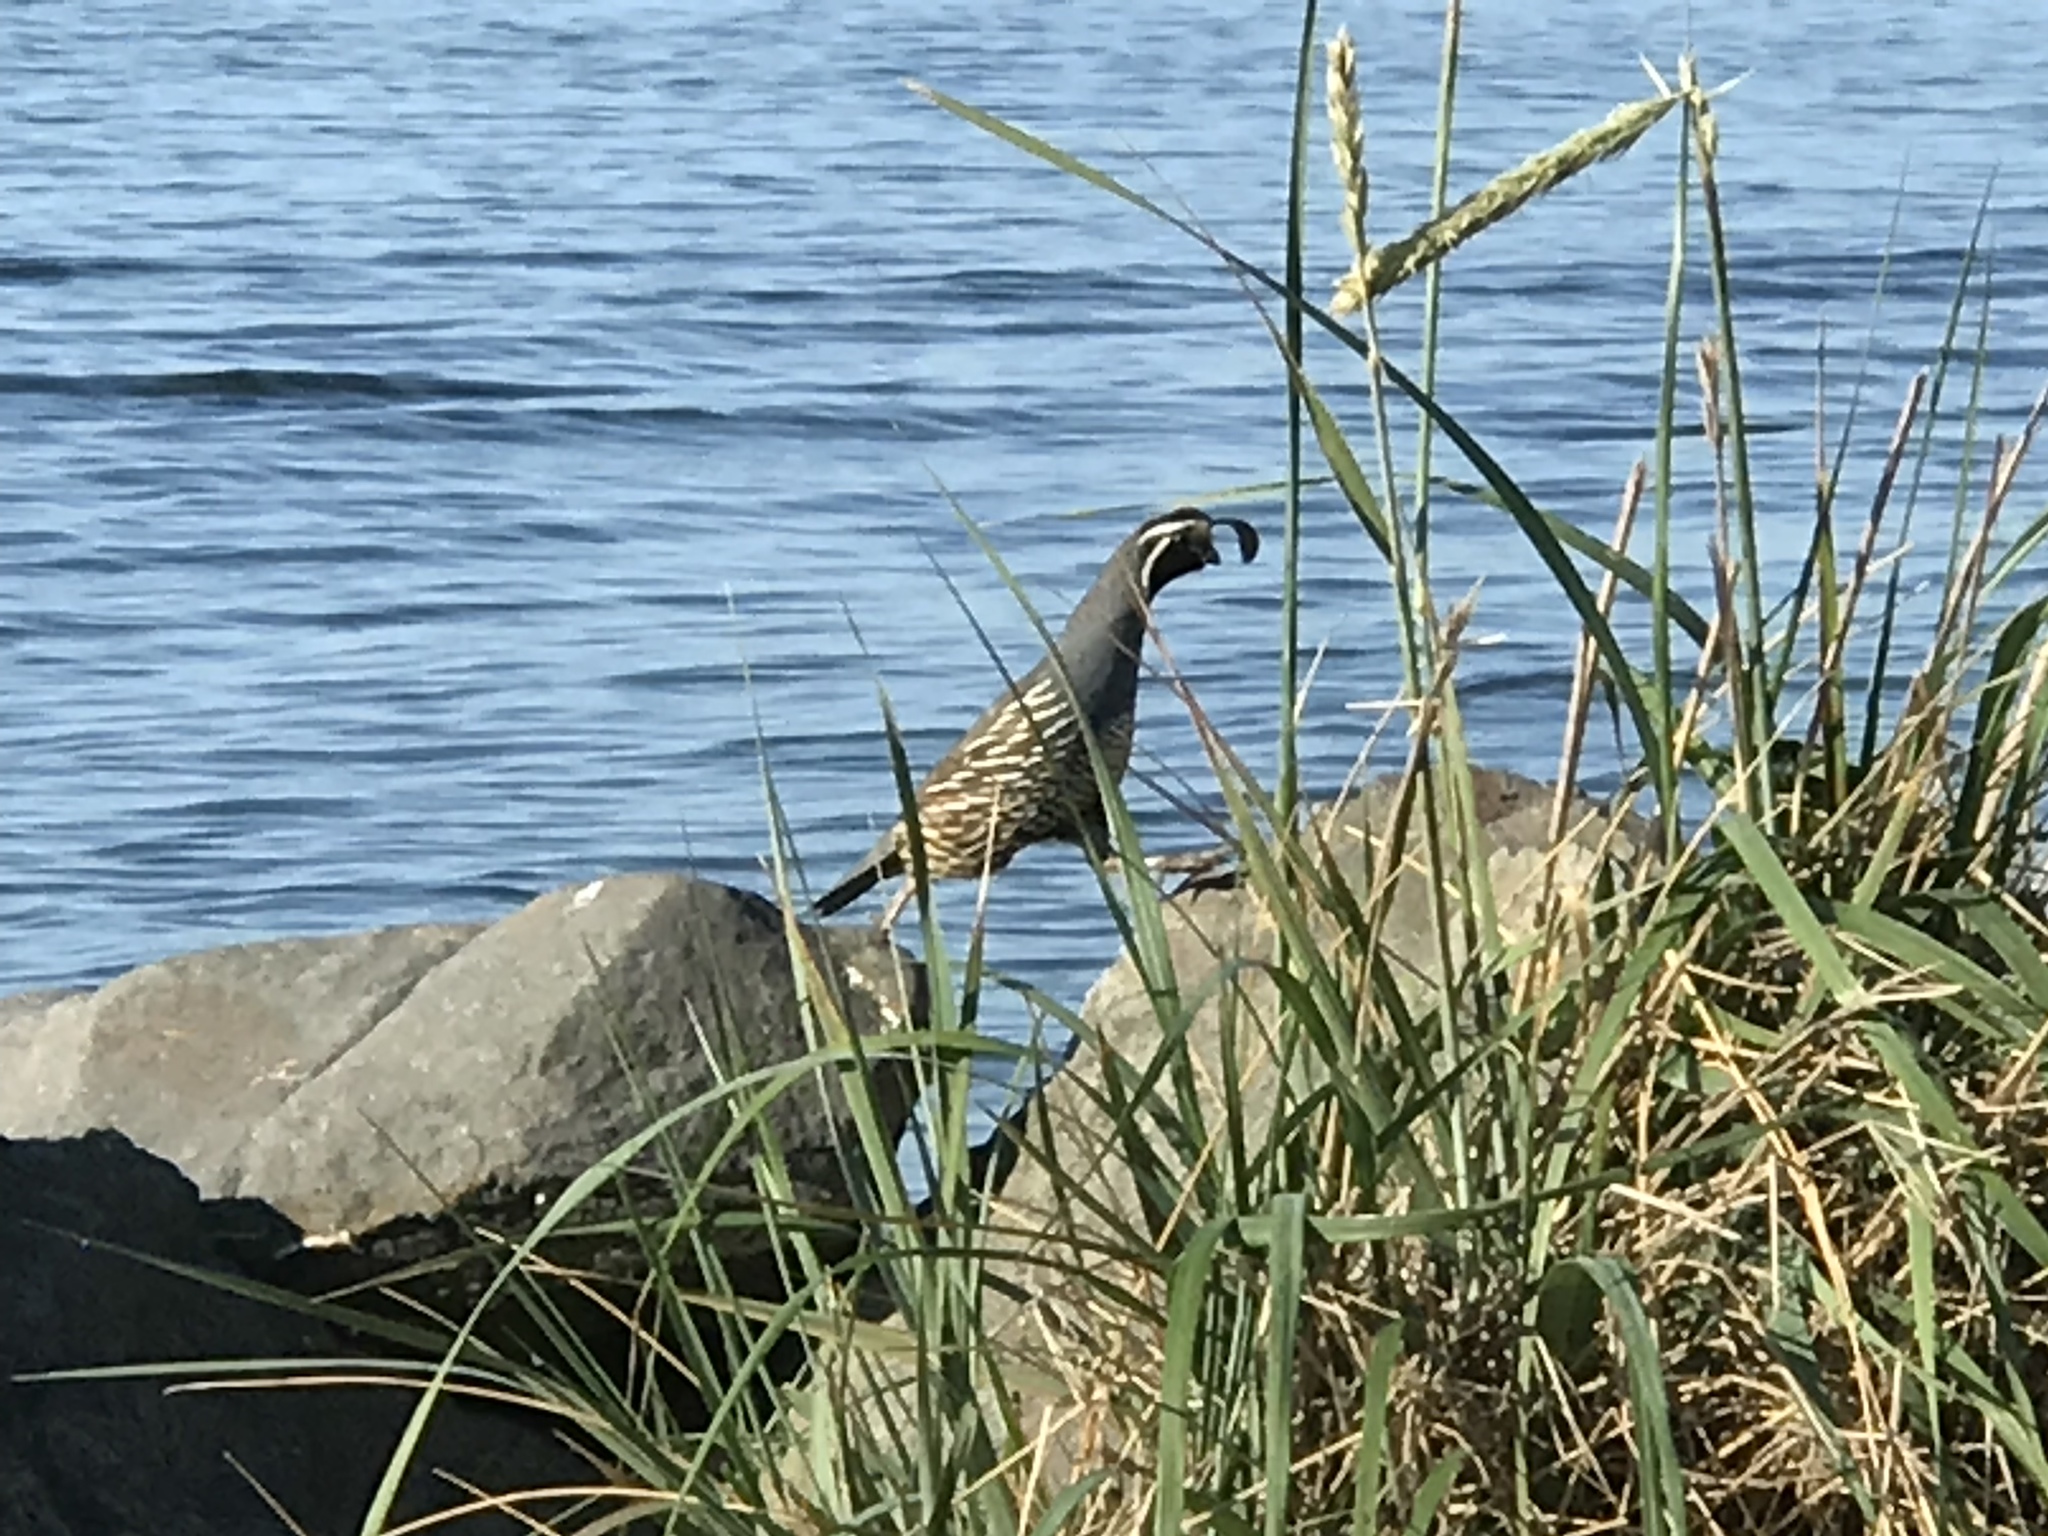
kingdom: Animalia
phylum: Chordata
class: Aves
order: Galliformes
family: Odontophoridae
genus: Callipepla
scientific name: Callipepla californica
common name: California quail
